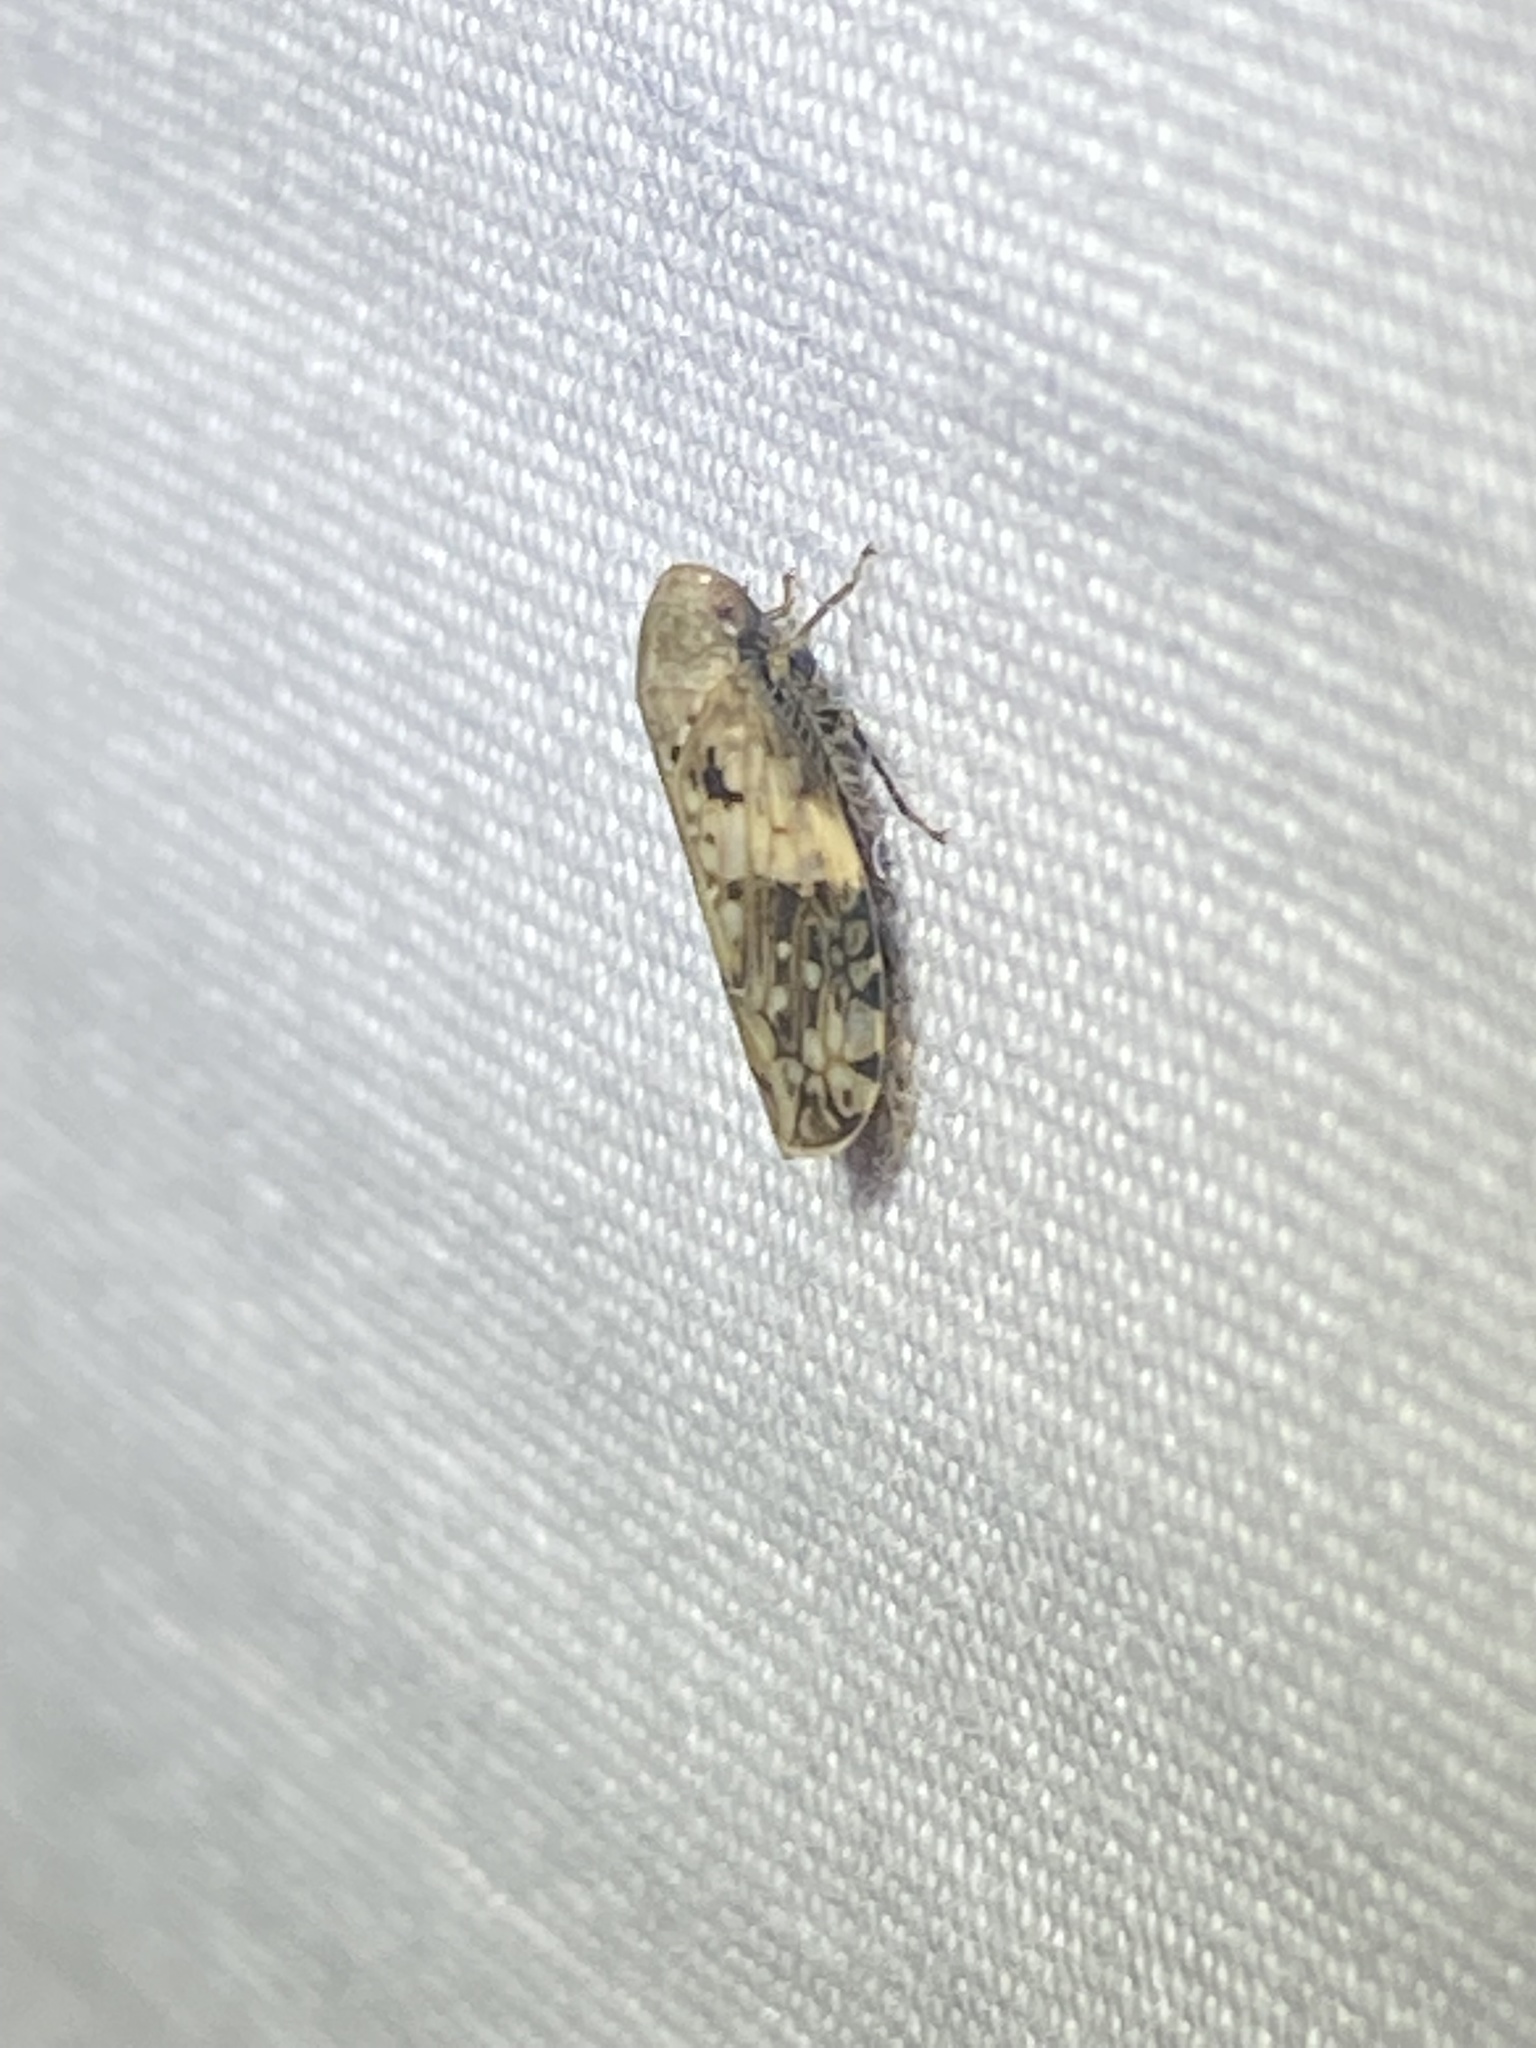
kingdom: Animalia
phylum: Arthropoda
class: Insecta
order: Hemiptera
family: Cicadellidae
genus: Menosoma
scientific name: Menosoma cinctum
